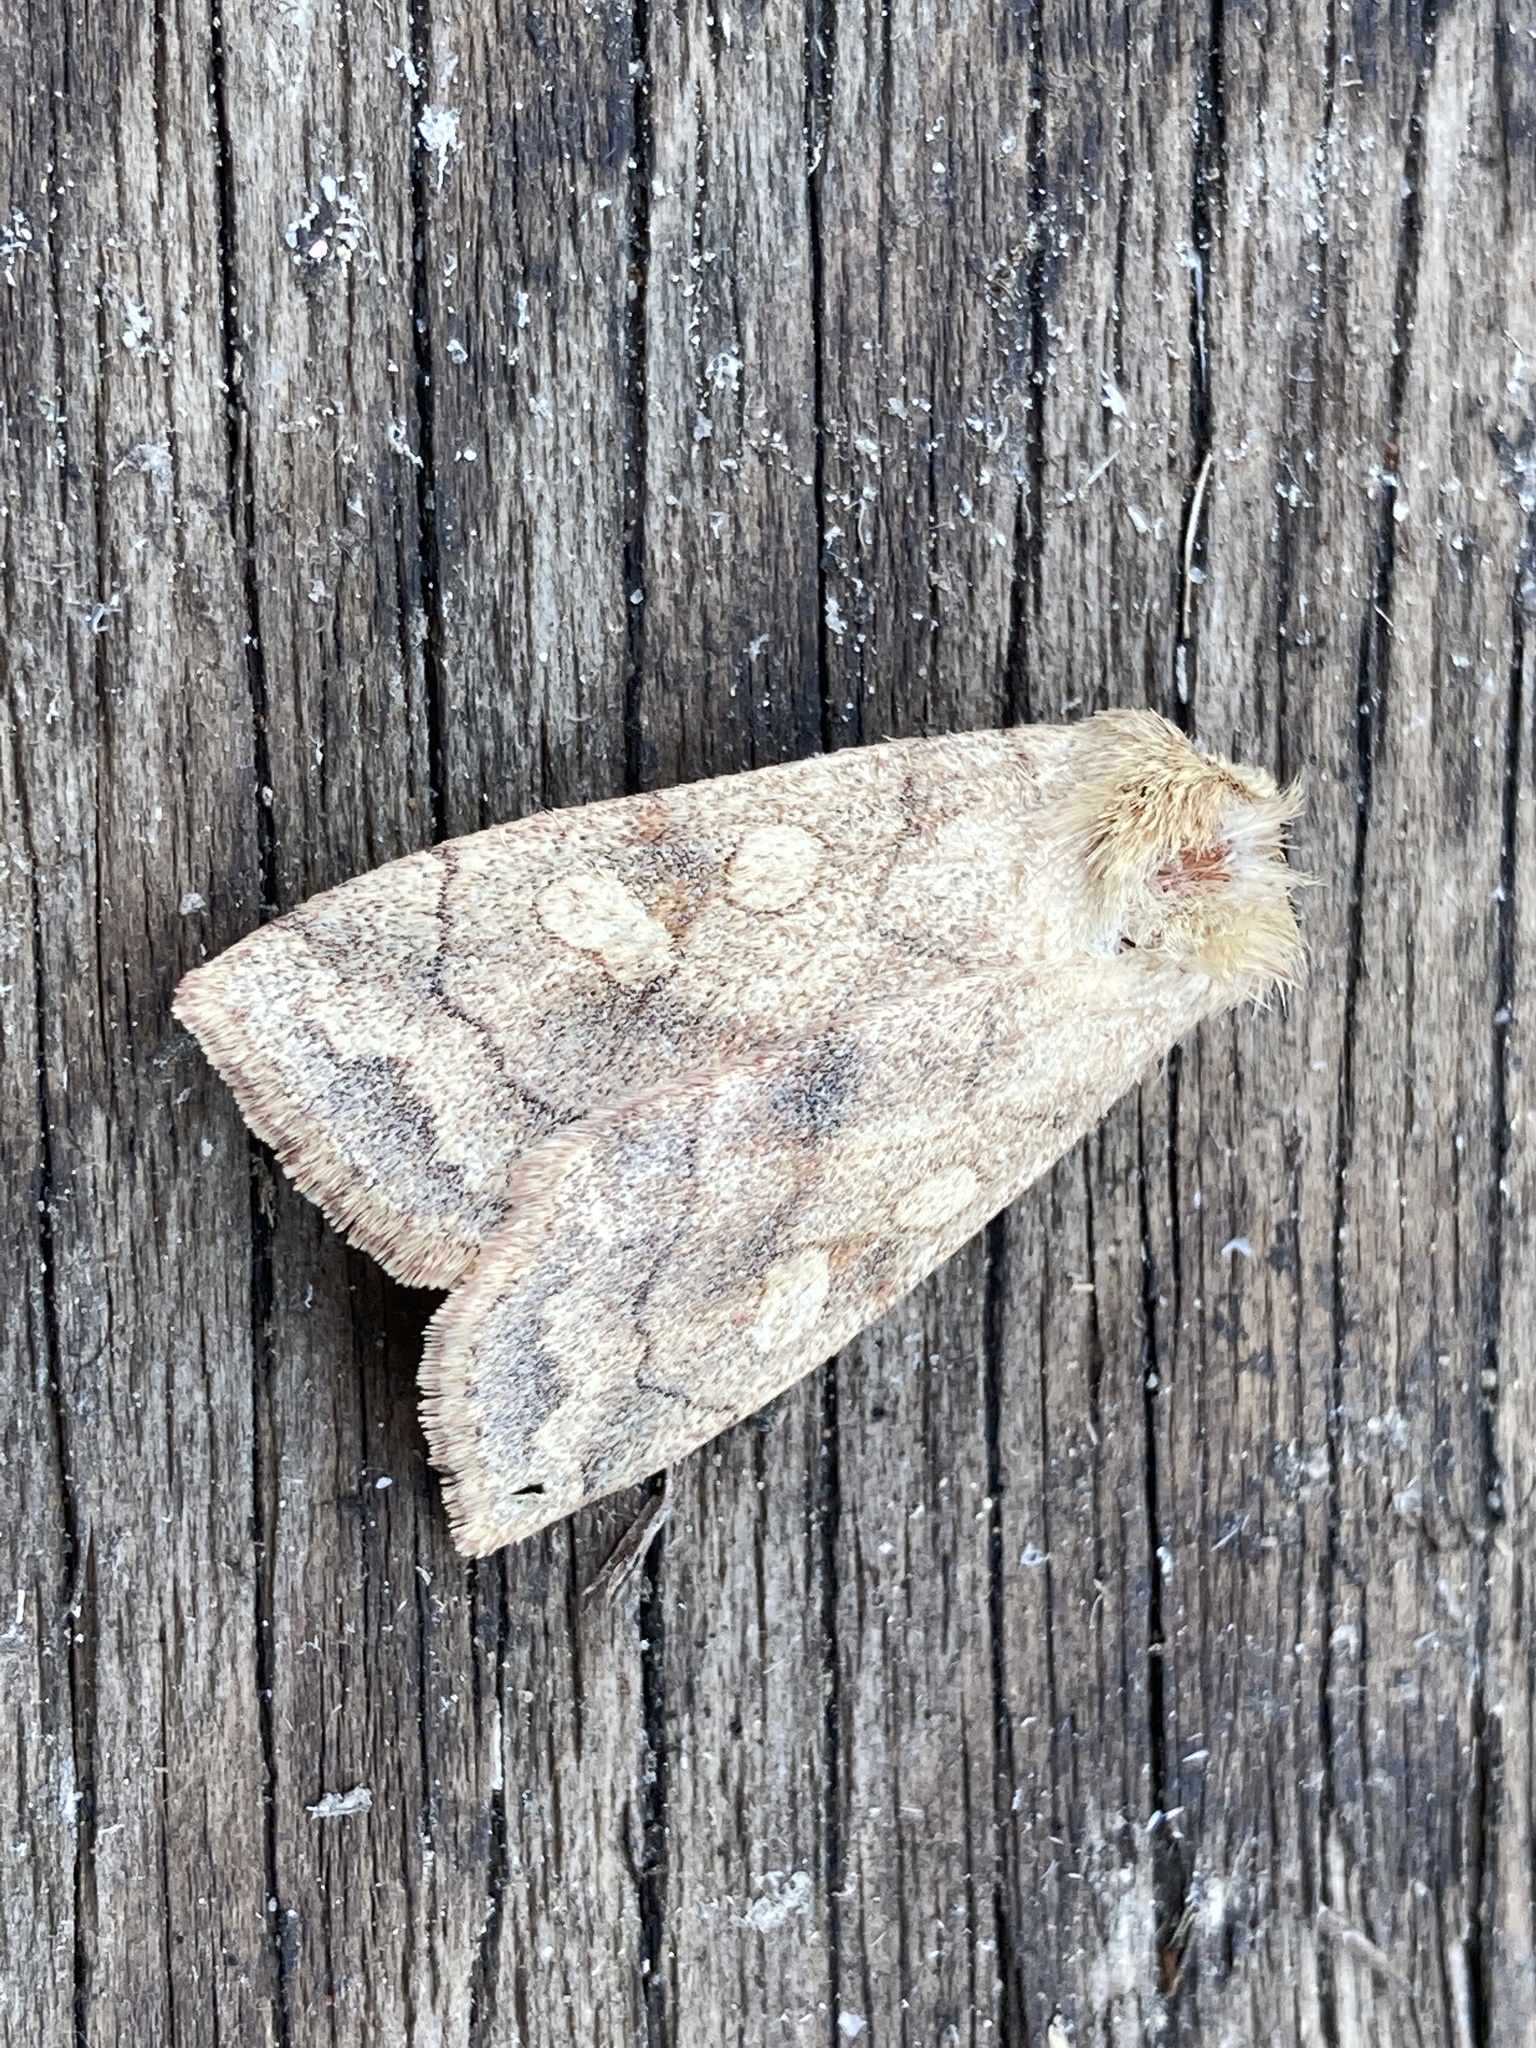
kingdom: Animalia
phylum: Arthropoda
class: Insecta
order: Lepidoptera
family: Noctuidae
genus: Enargia
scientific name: Enargia decolor
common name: Aspen twoleaf tier moth
